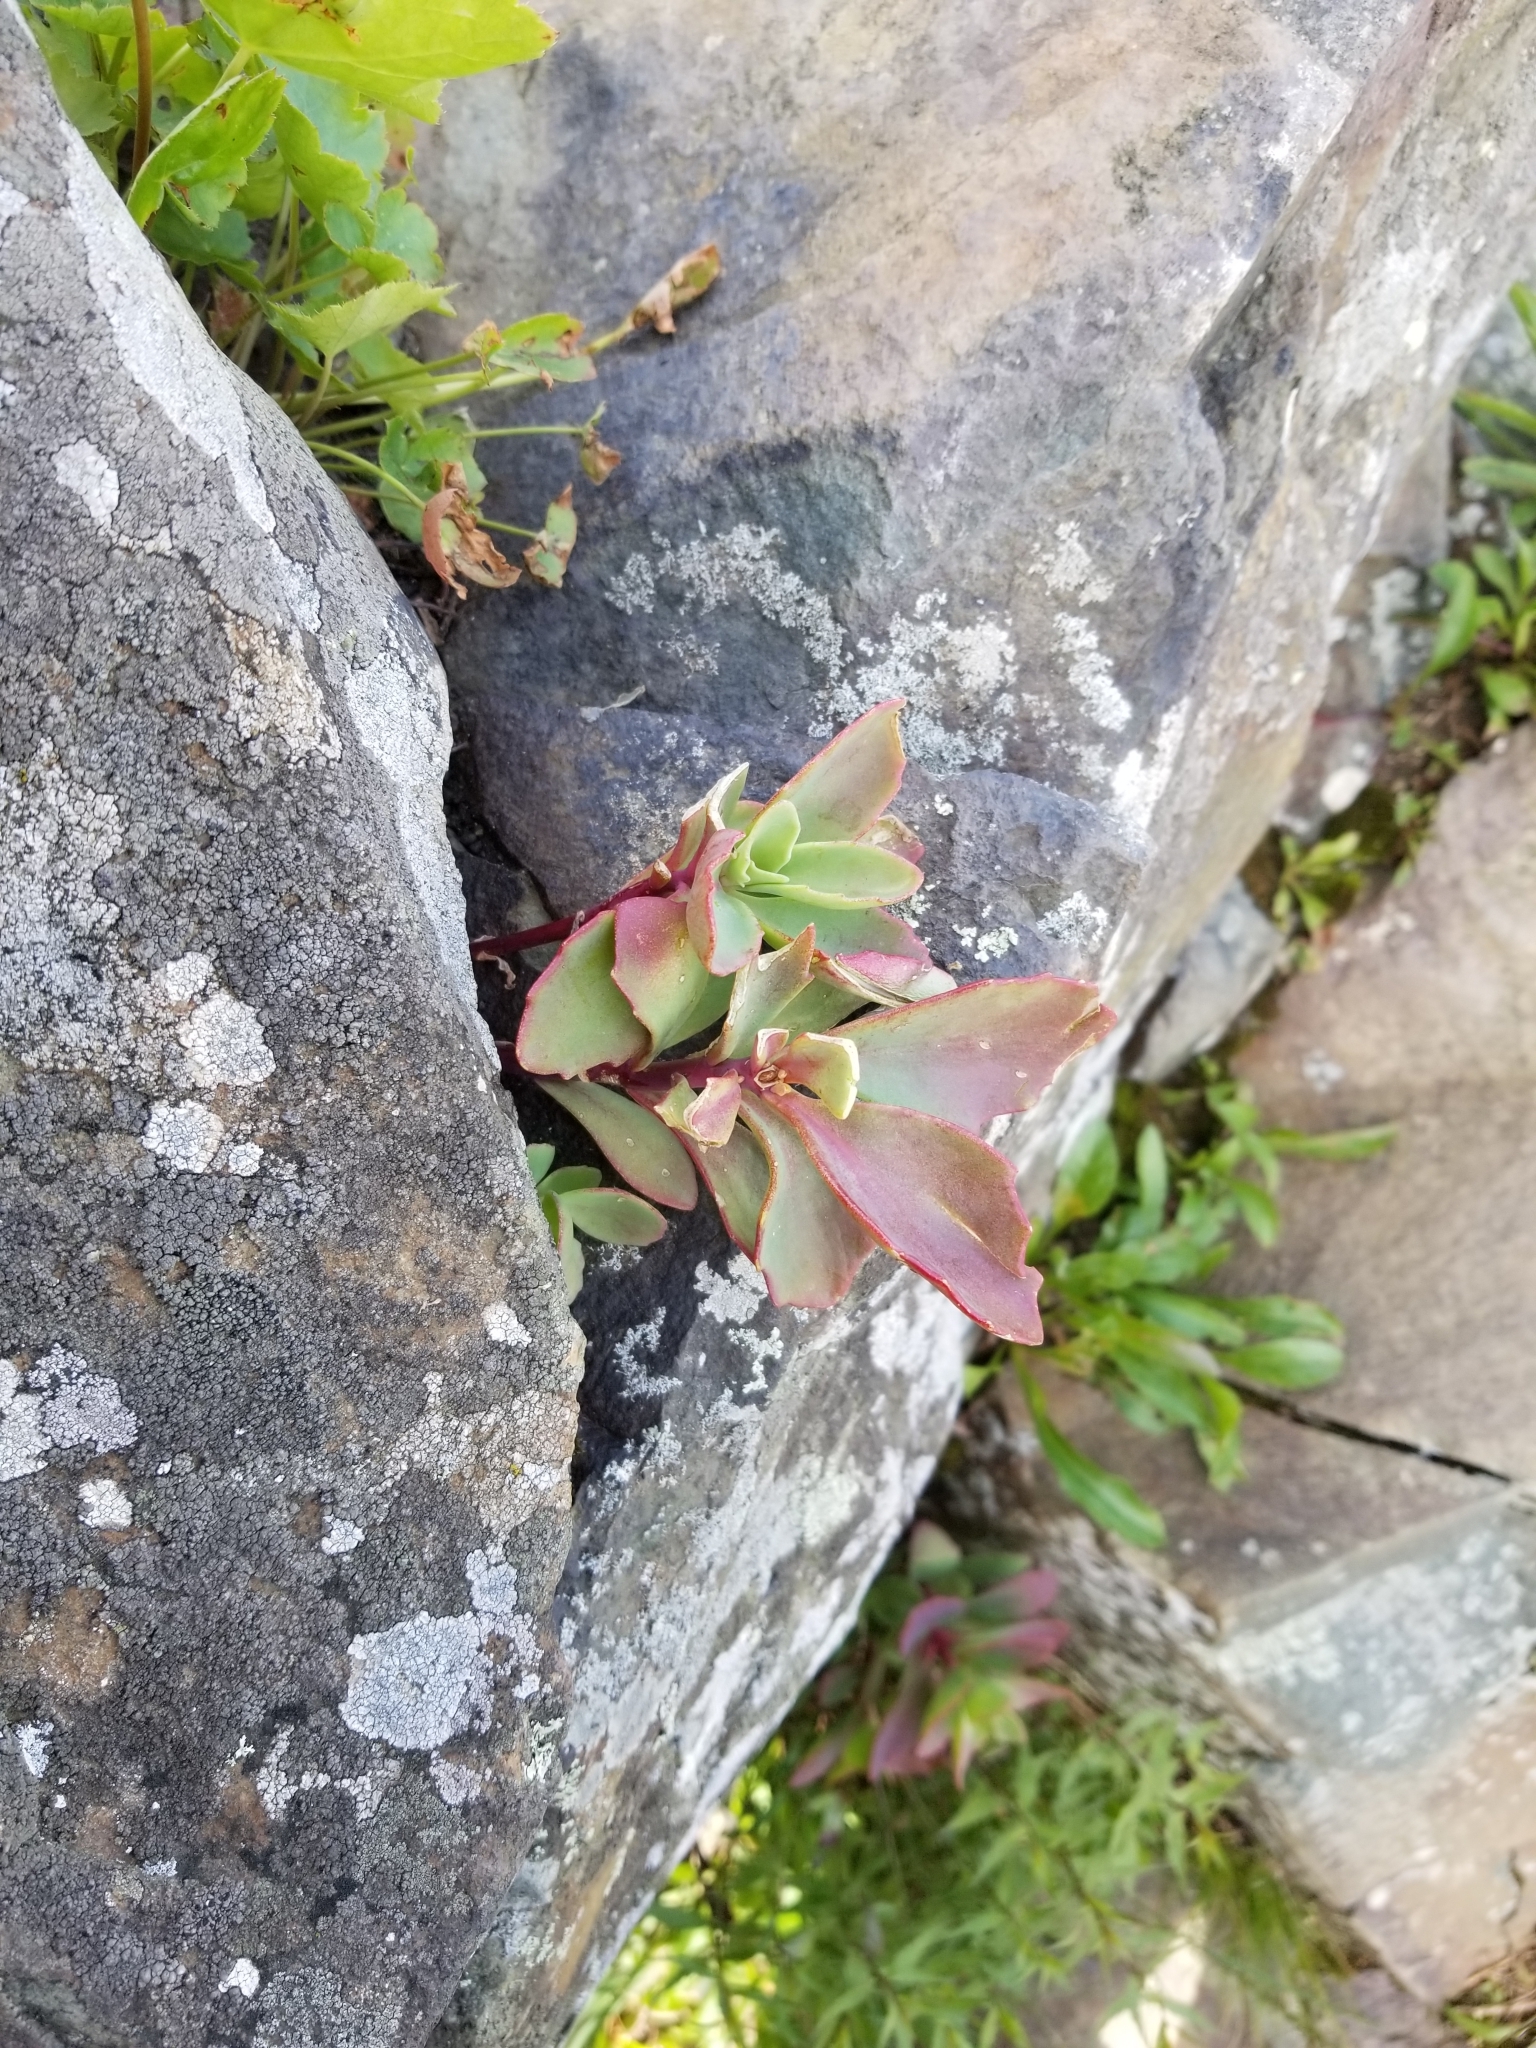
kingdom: Plantae
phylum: Tracheophyta
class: Magnoliopsida
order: Saxifragales
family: Crassulaceae
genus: Hylotelephium
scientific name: Hylotelephium telephioides
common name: Allegheny stonecrop
